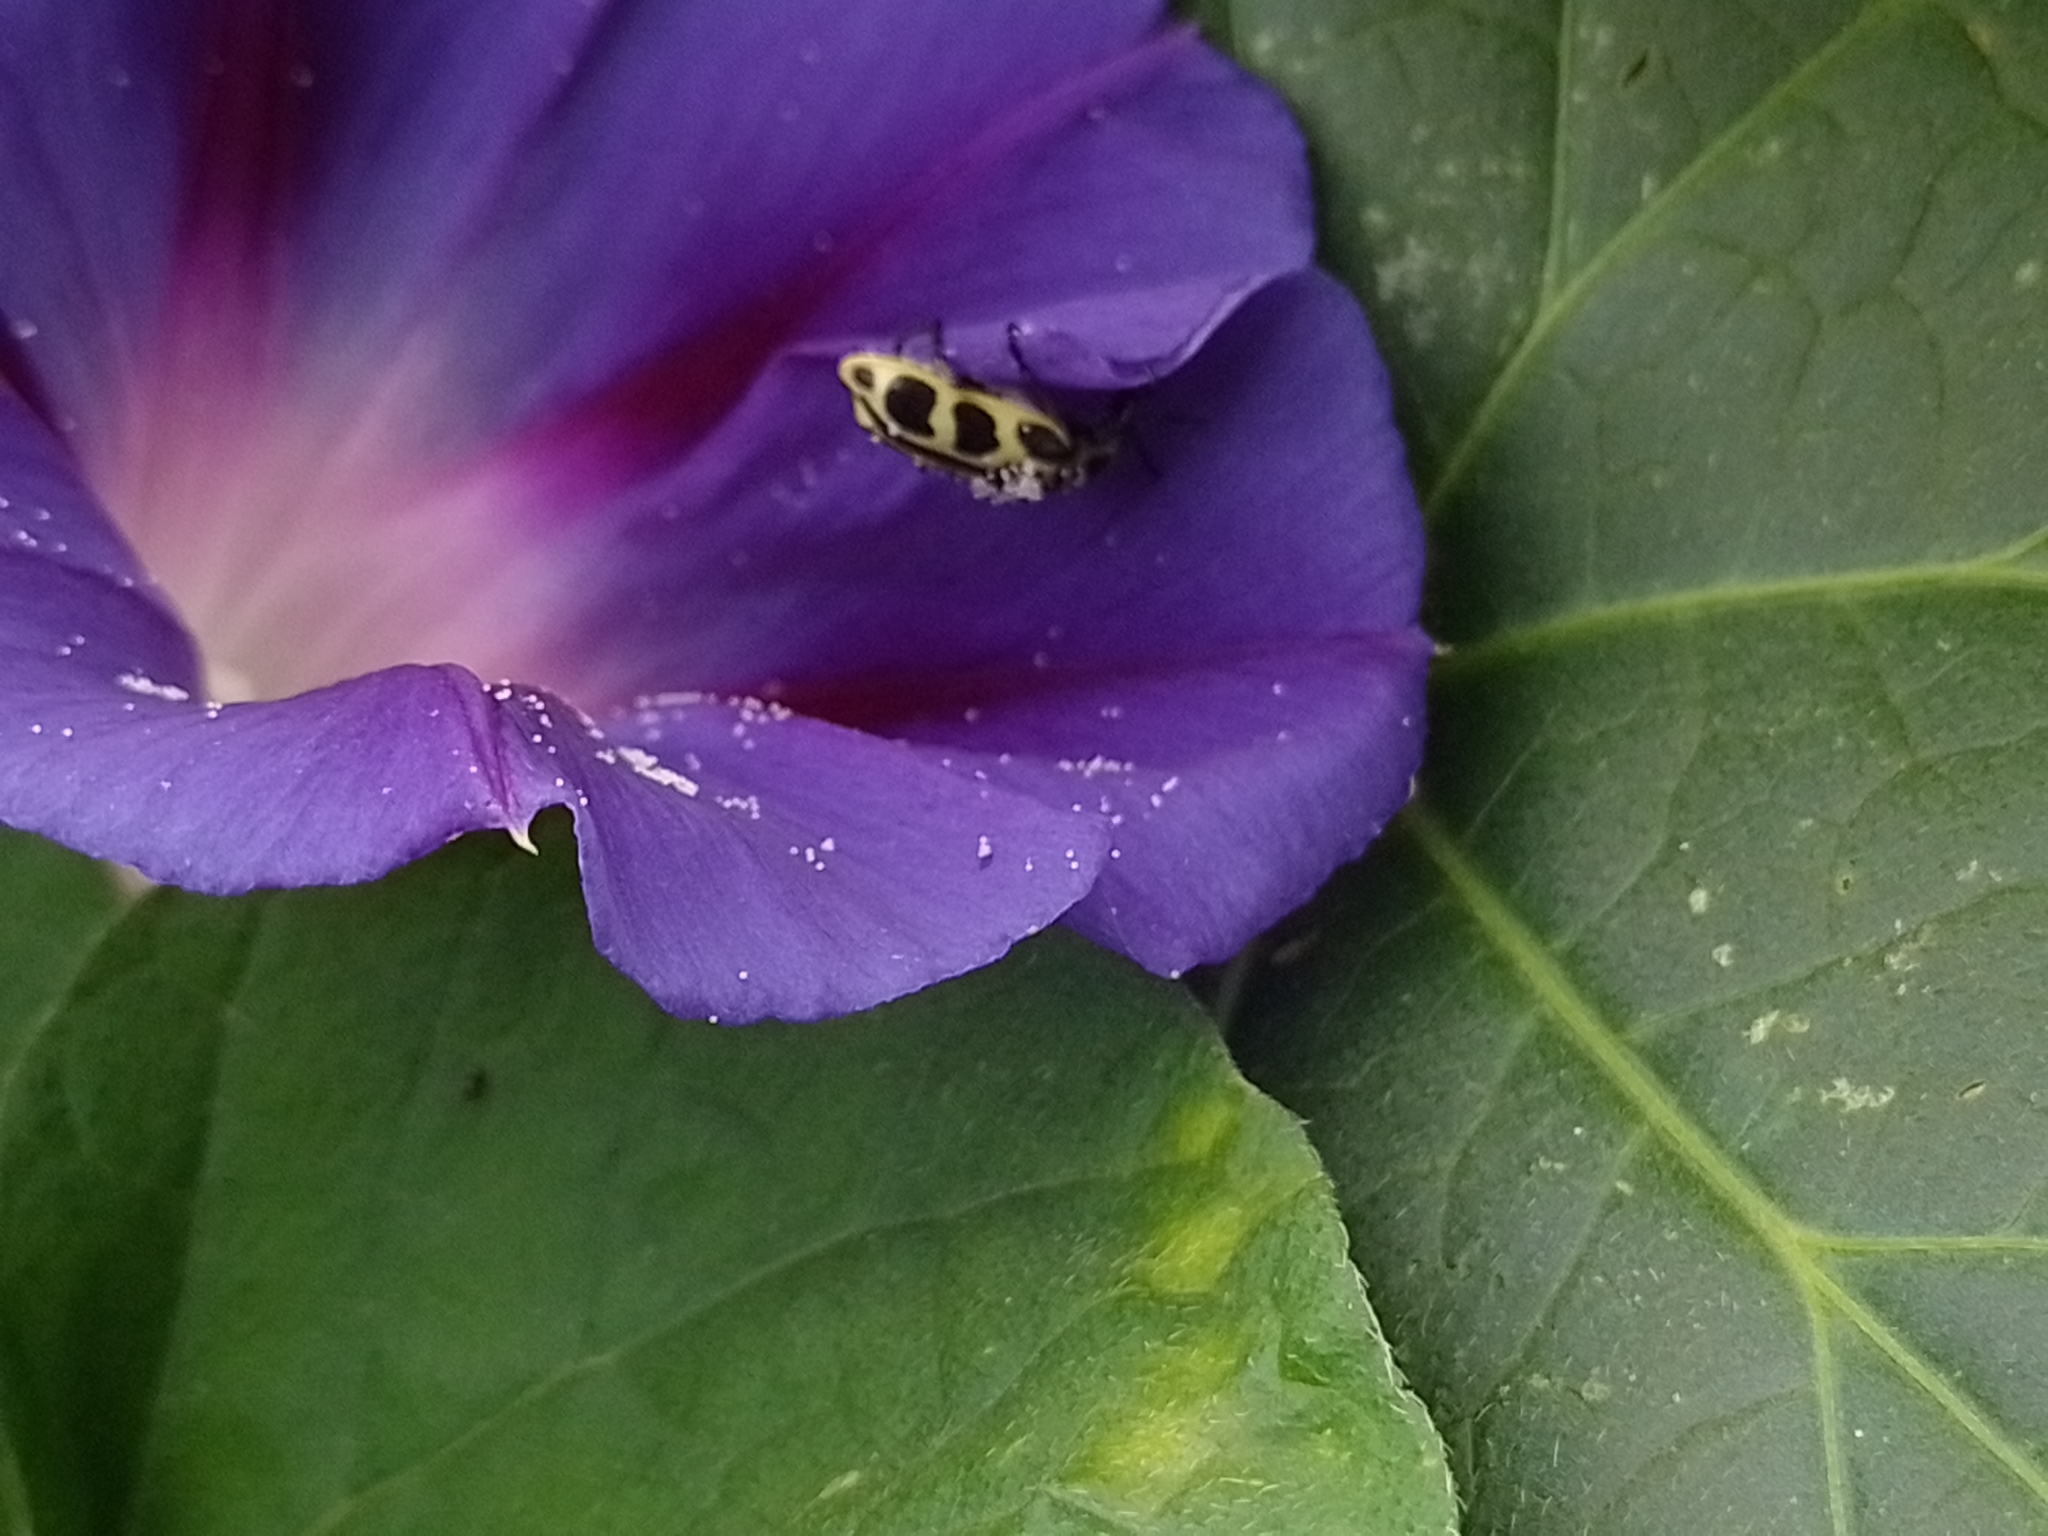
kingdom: Animalia
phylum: Arthropoda
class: Insecta
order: Coleoptera
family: Melyridae
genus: Astylus
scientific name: Astylus atromaculatus
